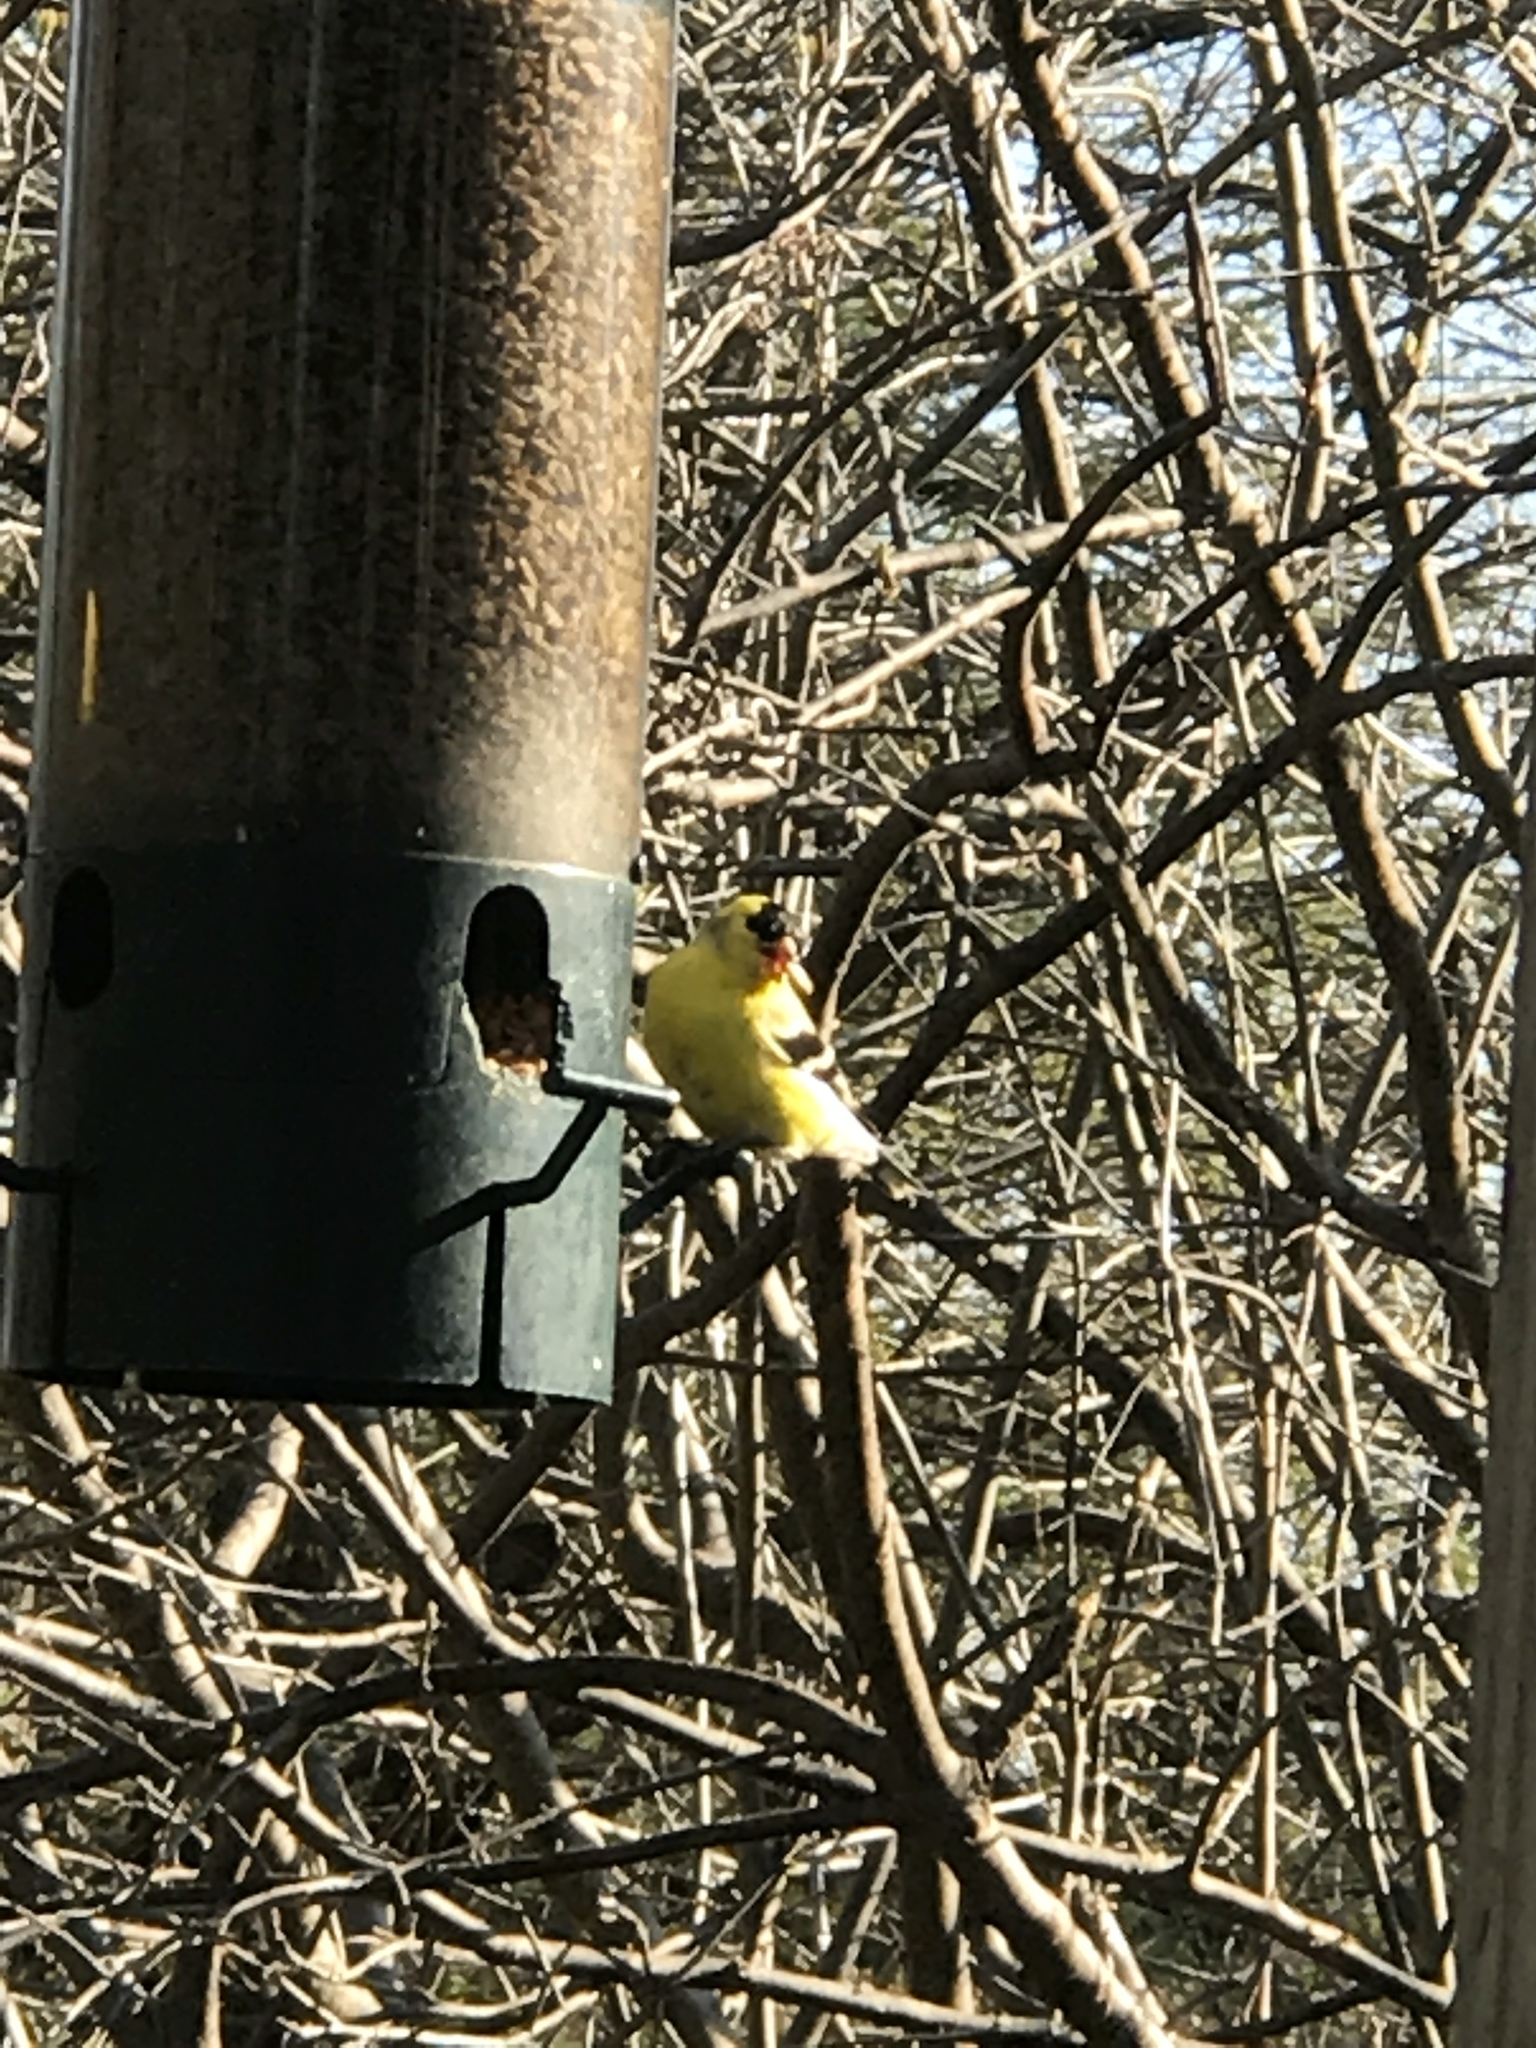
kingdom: Animalia
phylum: Chordata
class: Aves
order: Passeriformes
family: Fringillidae
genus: Spinus
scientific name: Spinus tristis
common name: American goldfinch
